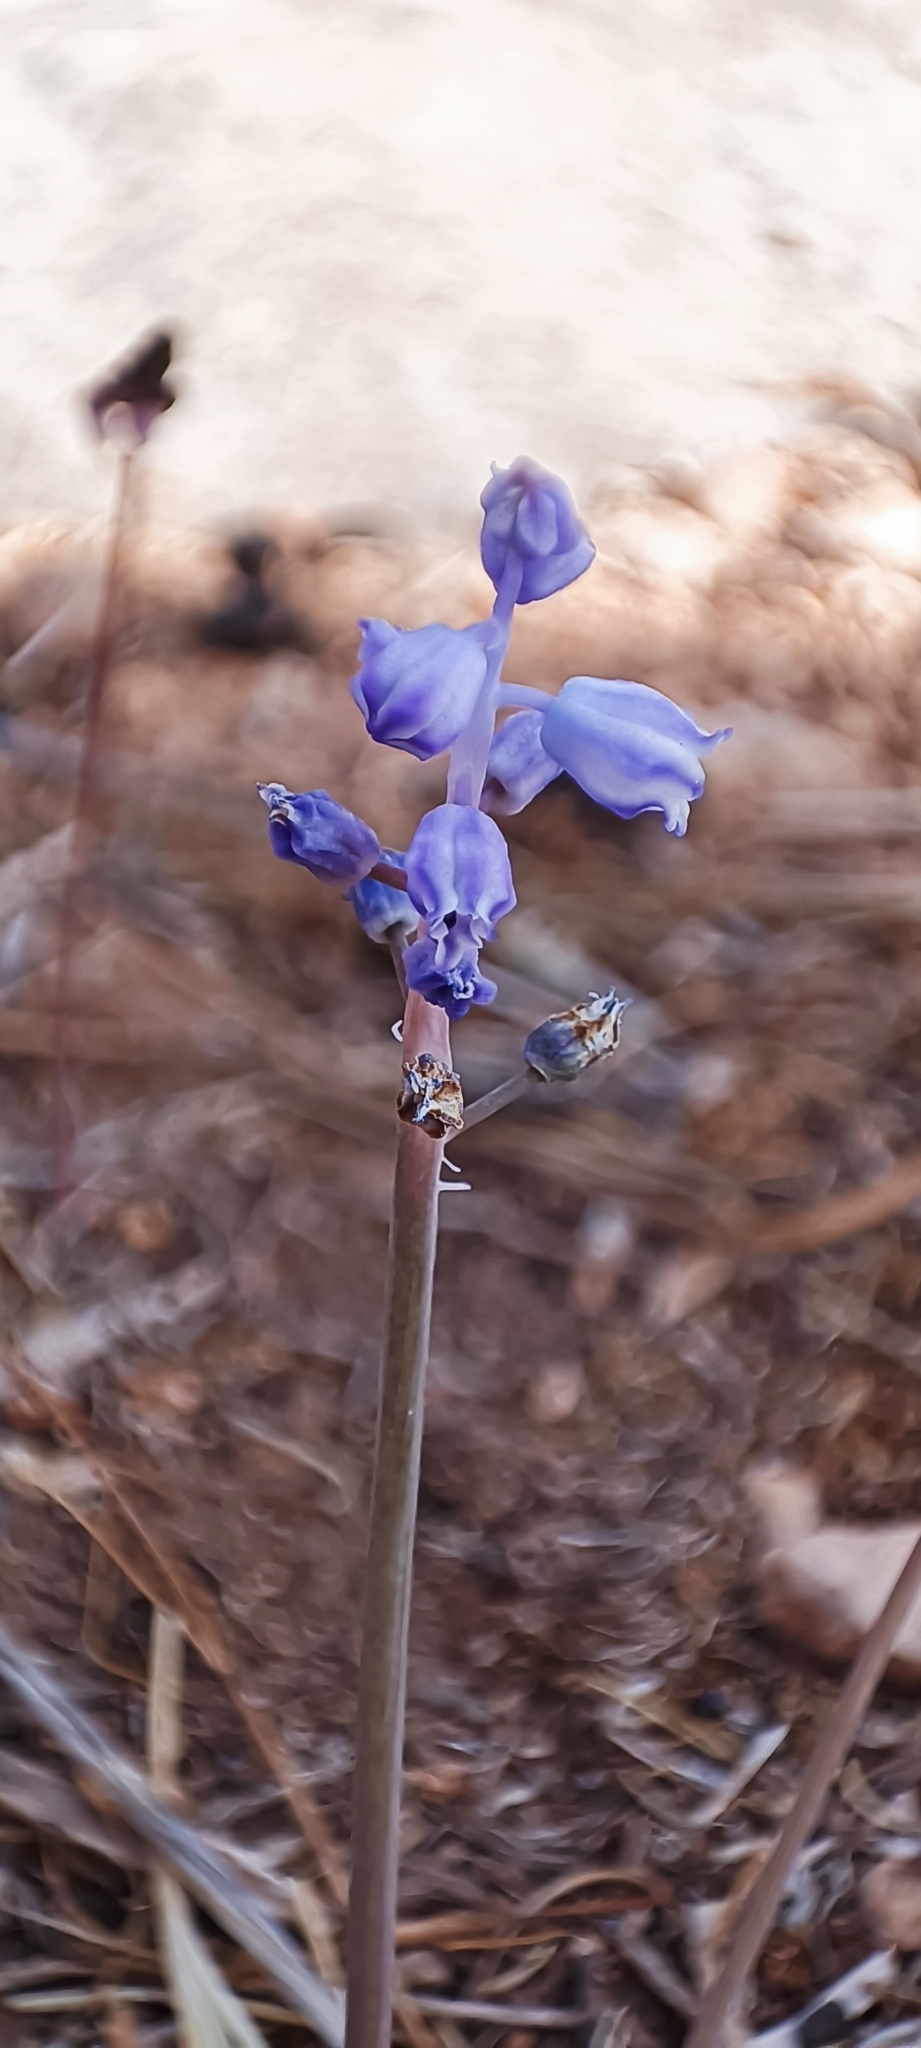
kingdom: Plantae
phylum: Tracheophyta
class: Liliopsida
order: Asparagales
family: Asparagaceae
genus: Muscari
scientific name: Muscari parviflorum
